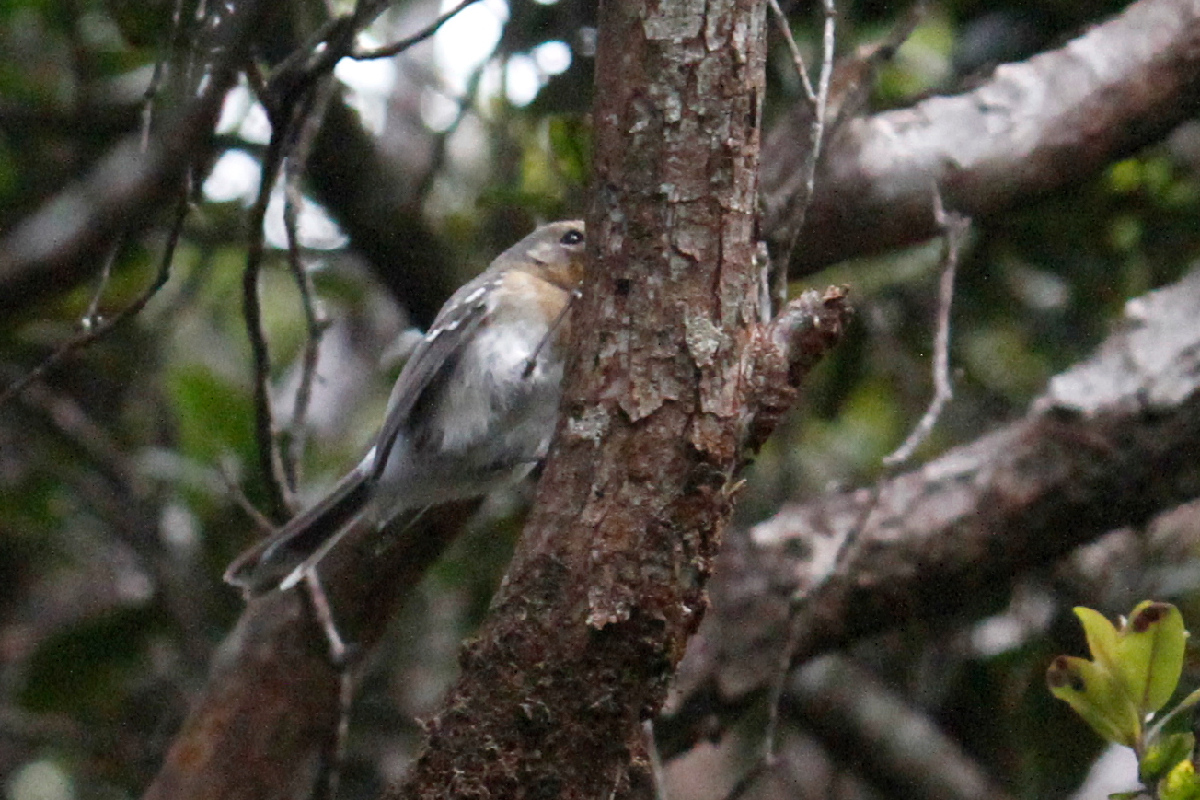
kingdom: Animalia
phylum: Chordata
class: Aves
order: Passeriformes
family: Monarchidae
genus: Chasiempis
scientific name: Chasiempis sclateri
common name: Kauai elepaio
